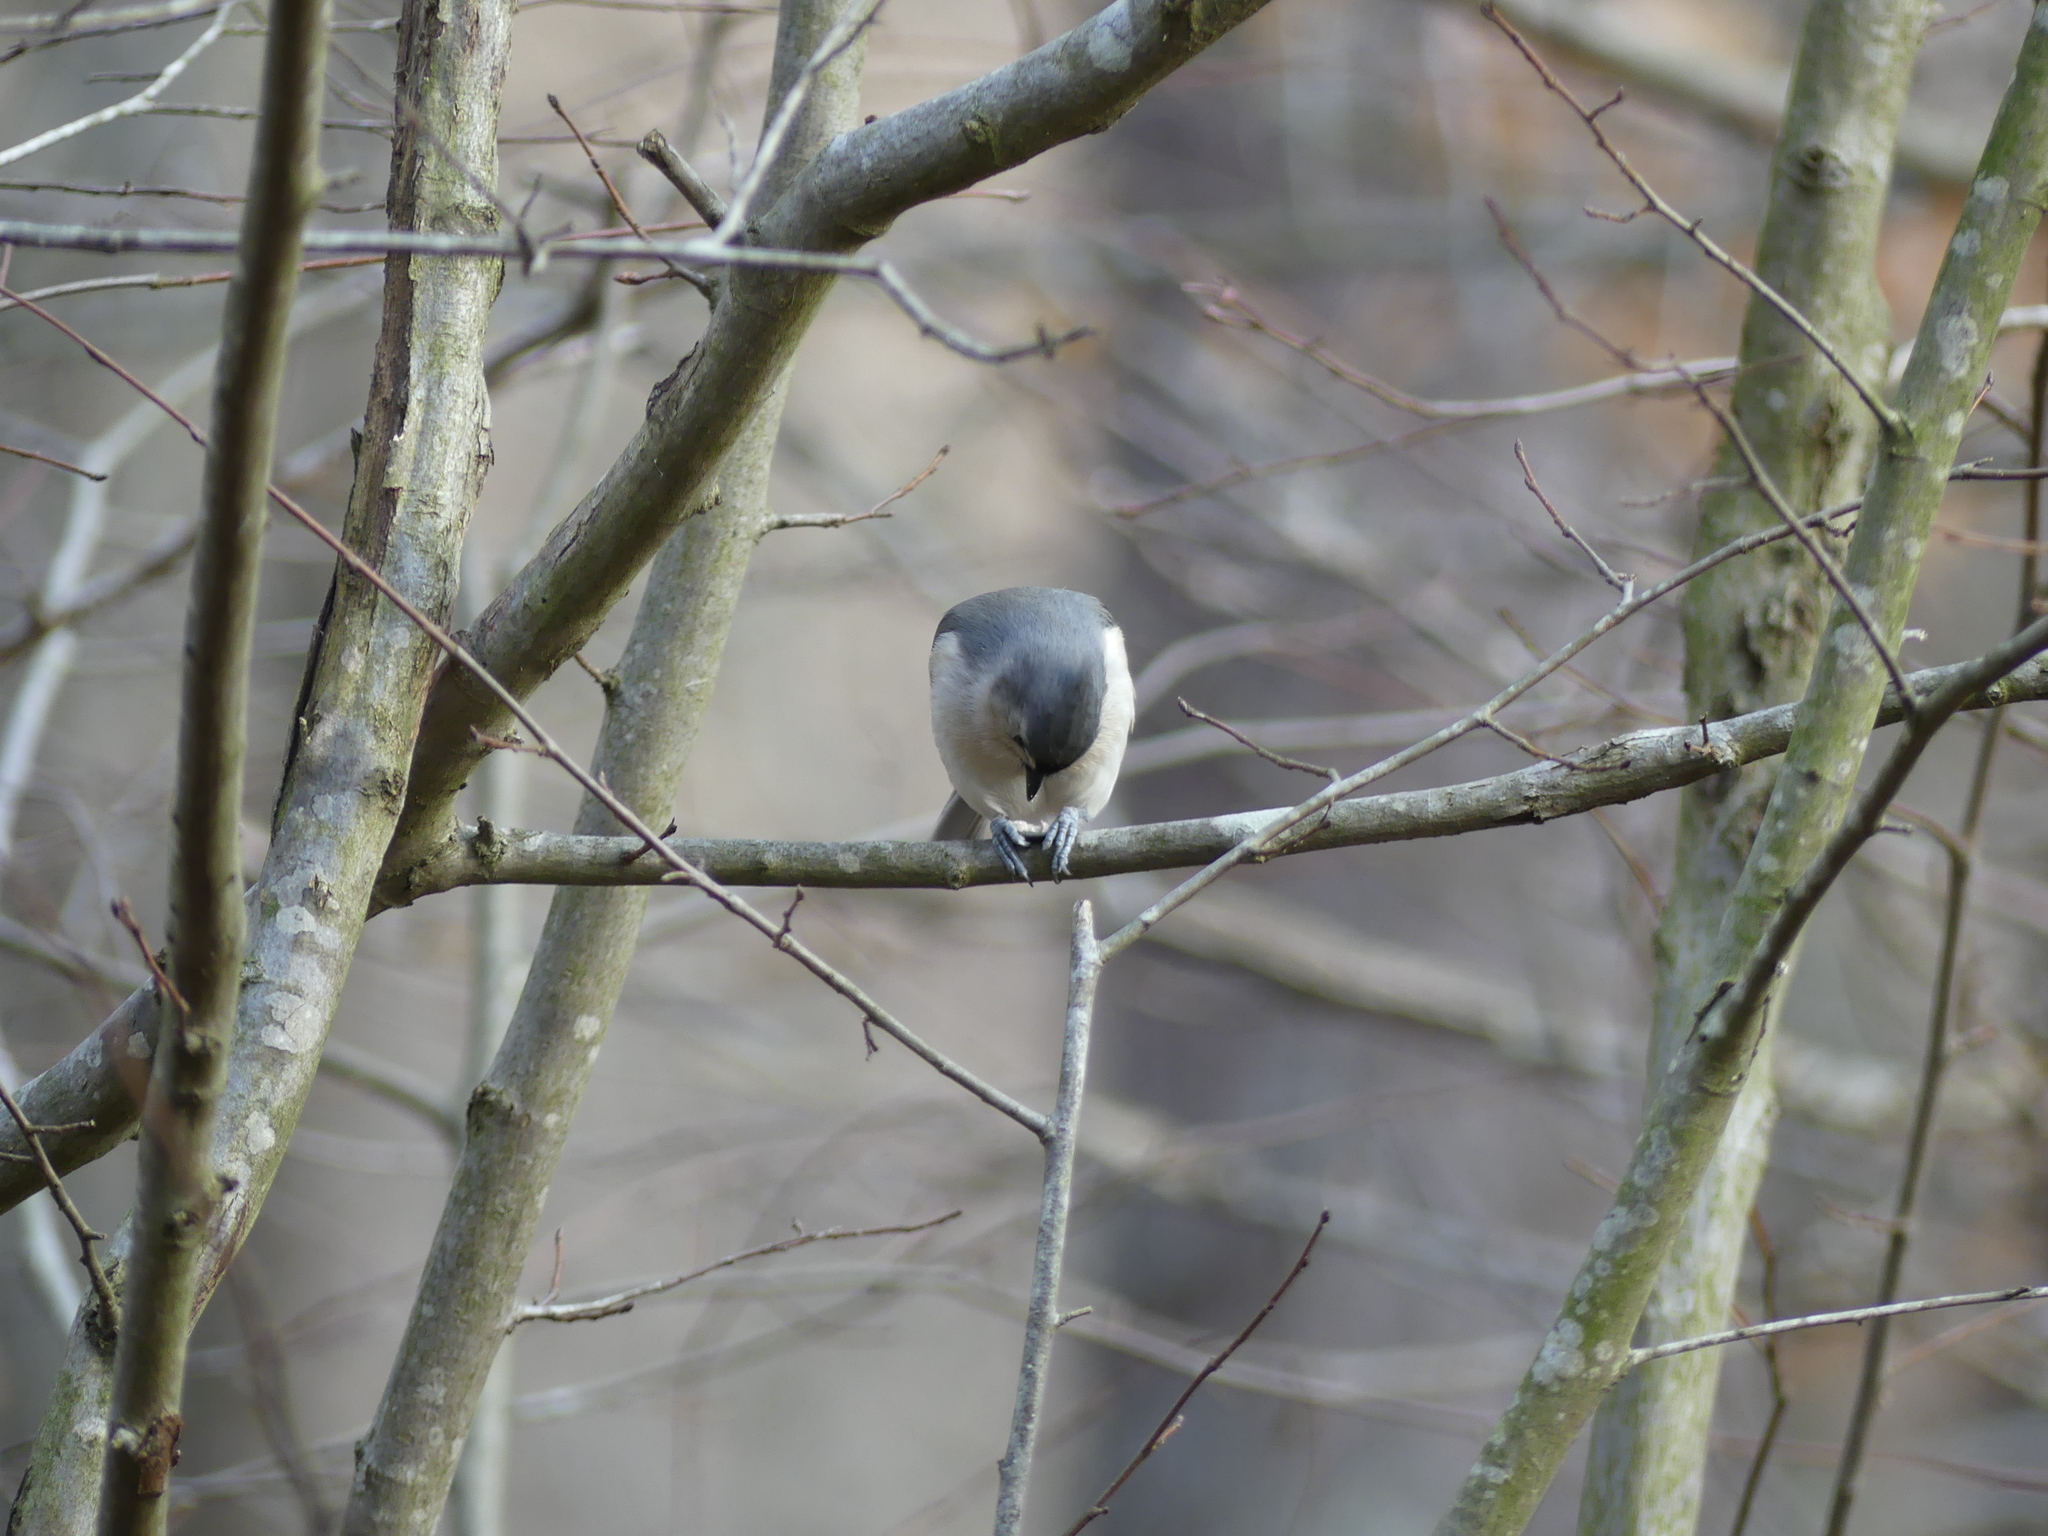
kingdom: Animalia
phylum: Chordata
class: Aves
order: Passeriformes
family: Paridae
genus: Baeolophus
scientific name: Baeolophus bicolor
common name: Tufted titmouse
